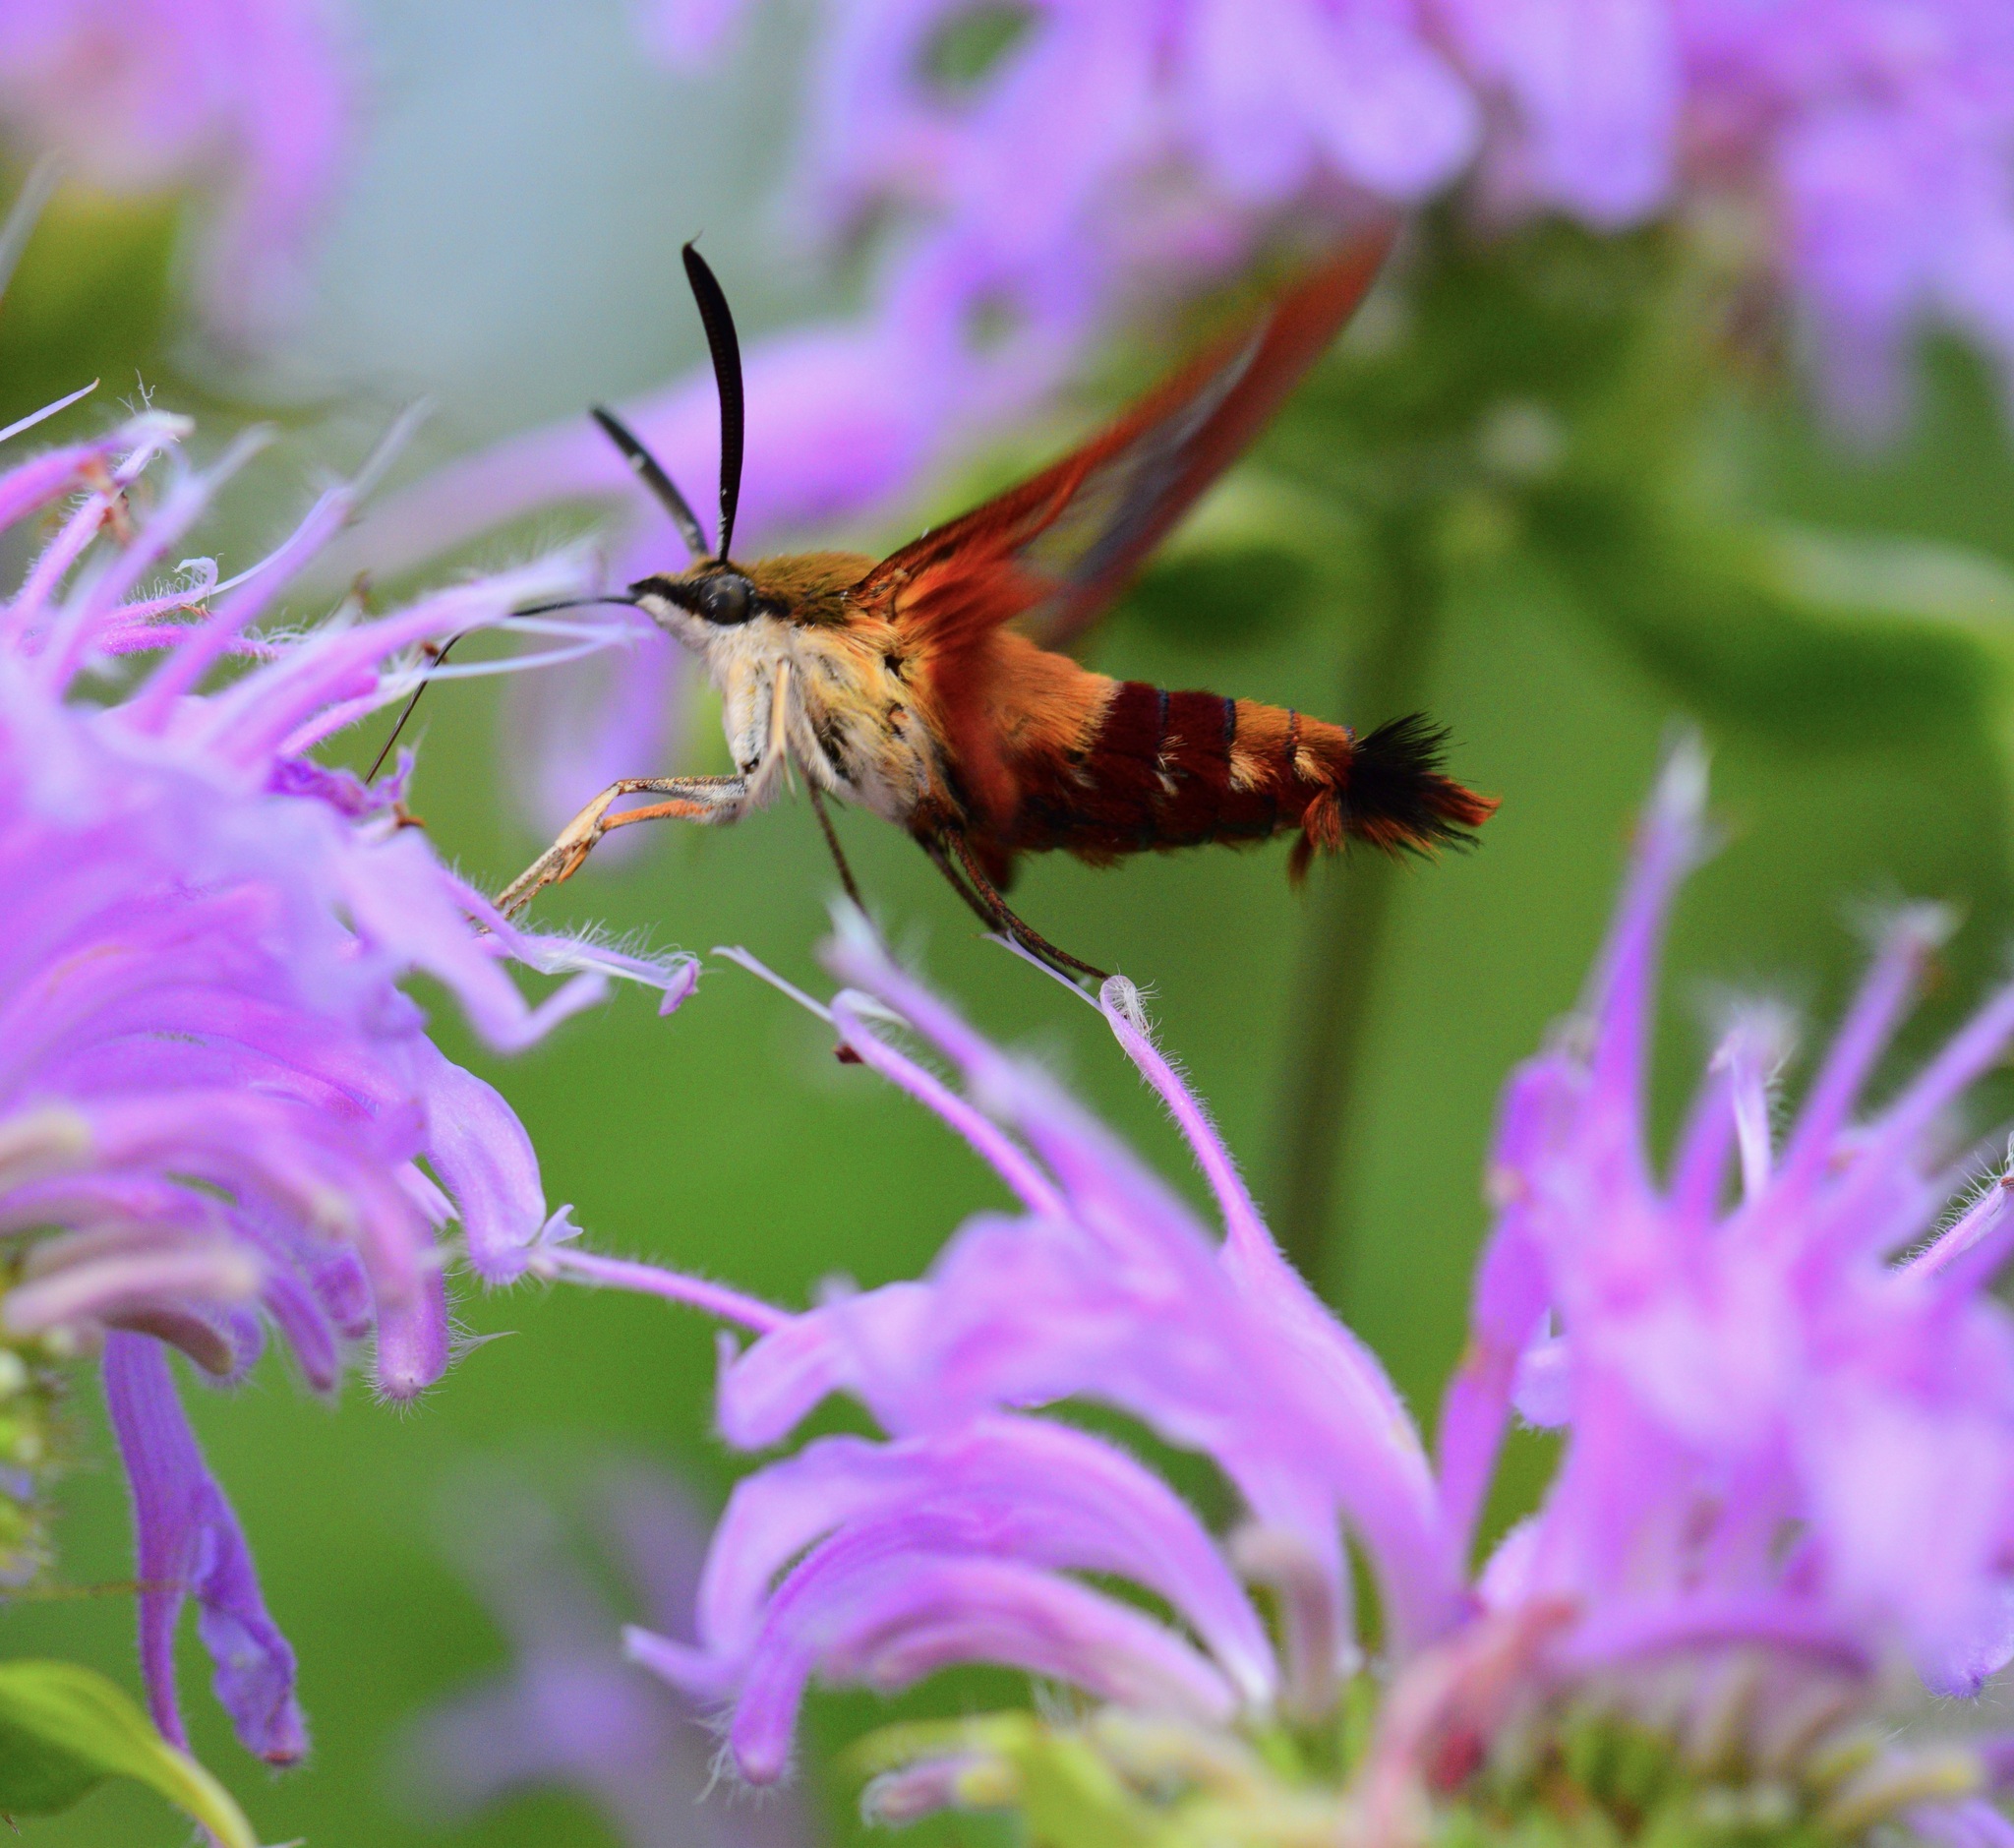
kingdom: Animalia
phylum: Arthropoda
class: Insecta
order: Lepidoptera
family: Sphingidae
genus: Hemaris
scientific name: Hemaris thysbe
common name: Common clear-wing
